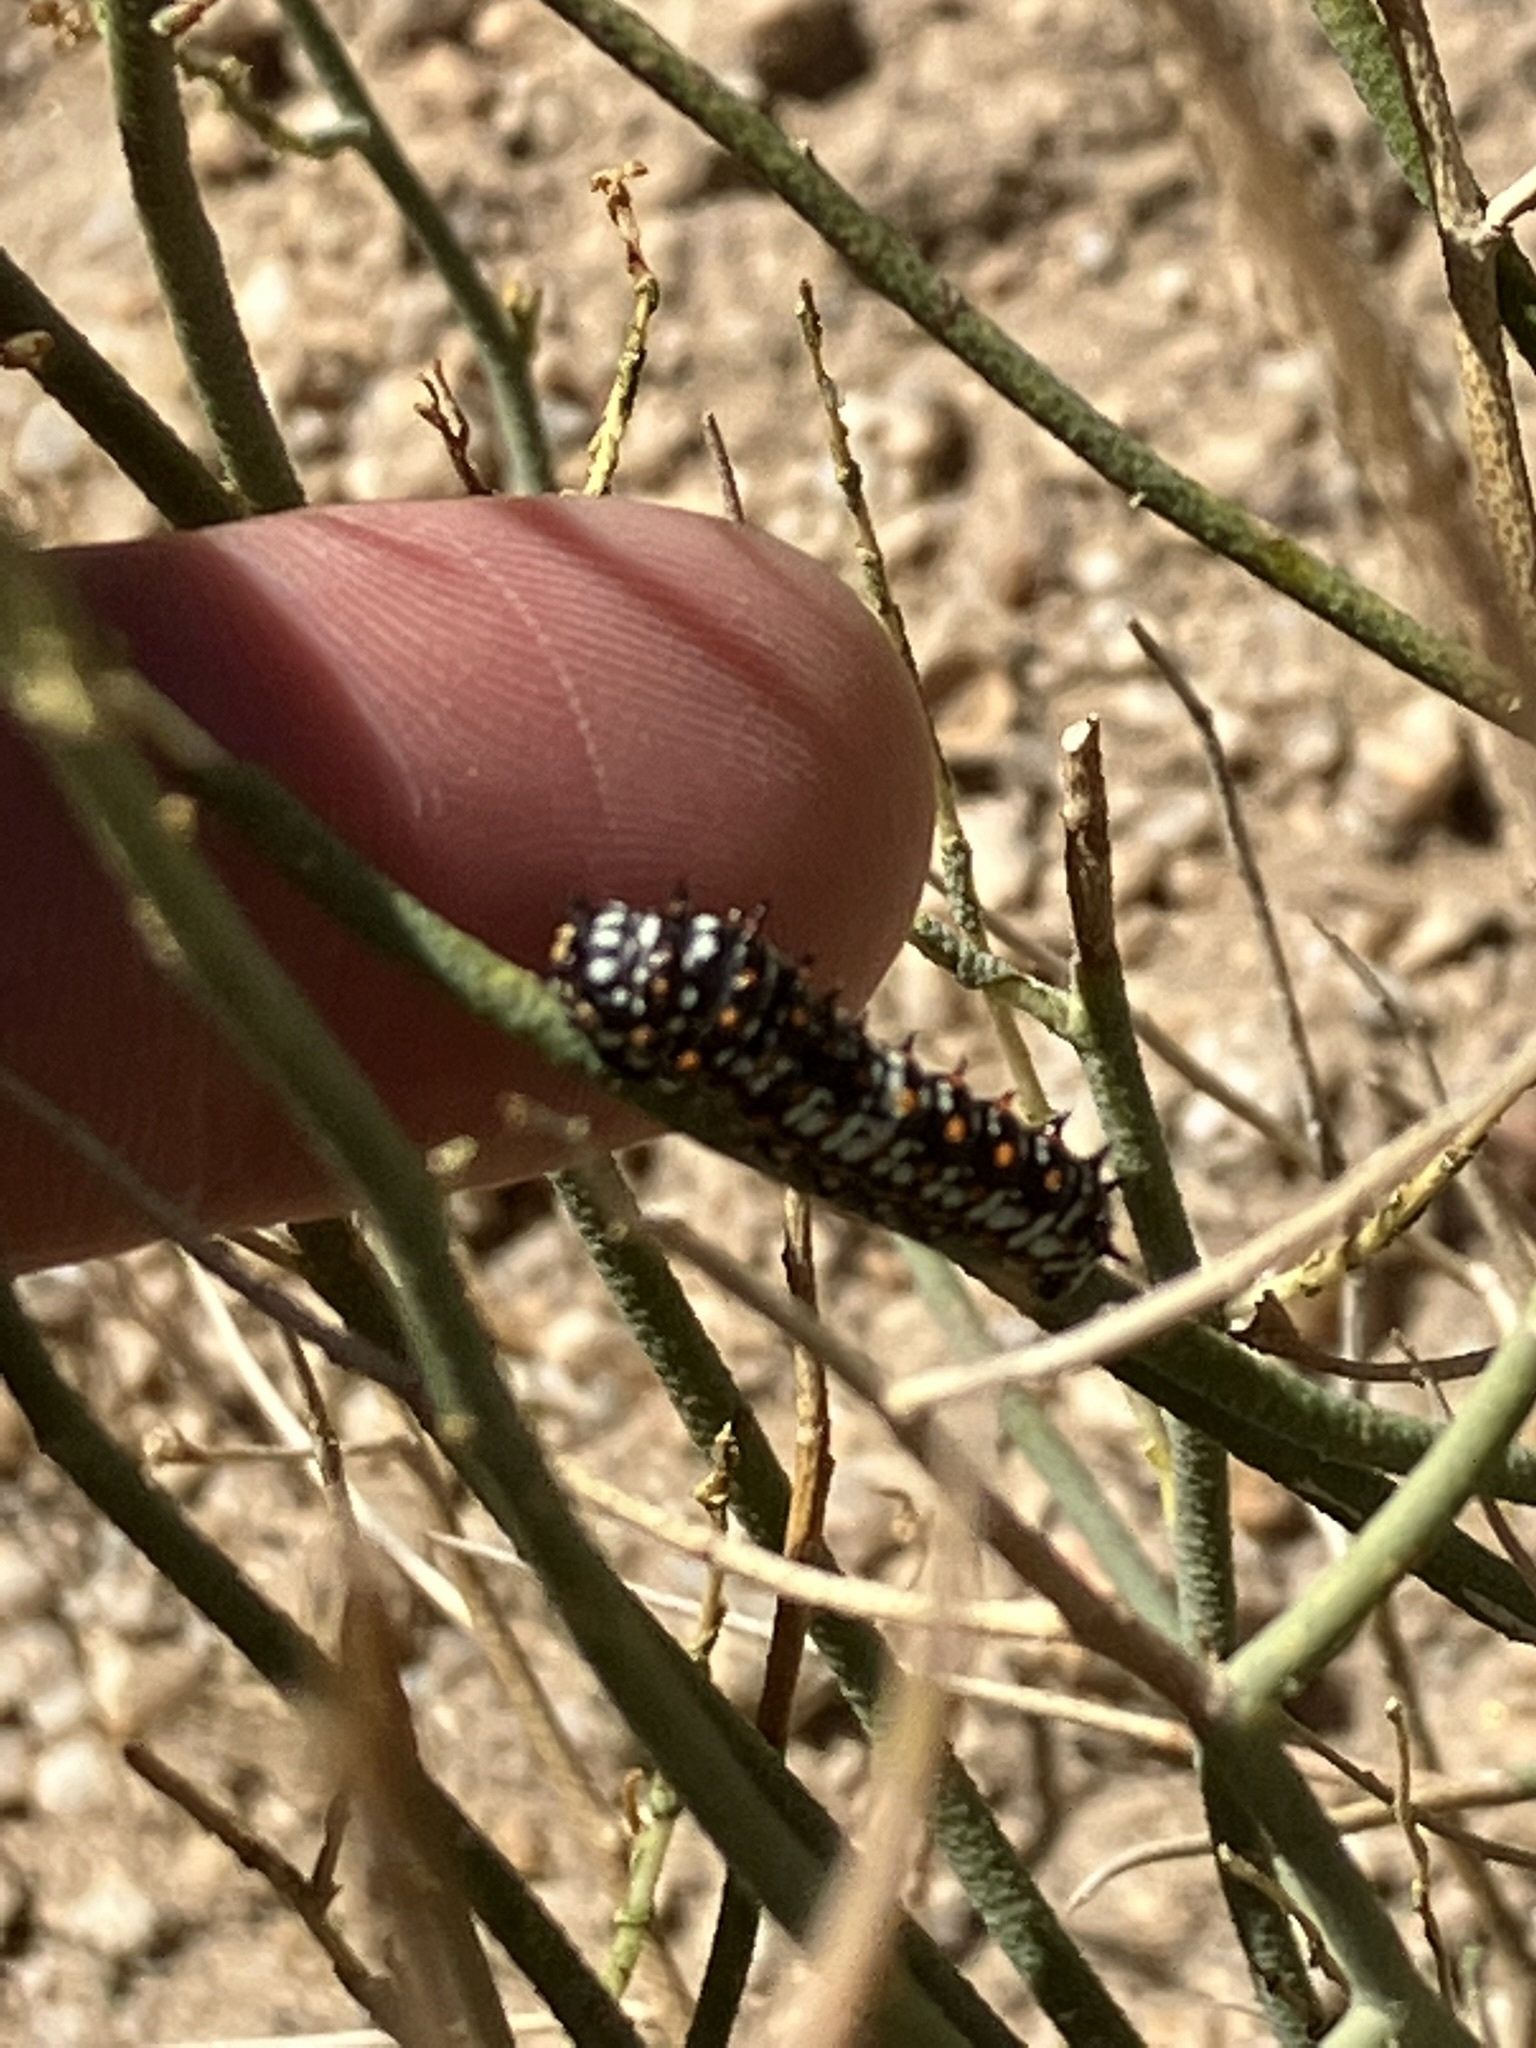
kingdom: Animalia
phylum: Arthropoda
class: Insecta
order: Lepidoptera
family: Papilionidae
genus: Papilio
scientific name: Papilio polyxenes
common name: Black swallowtail
